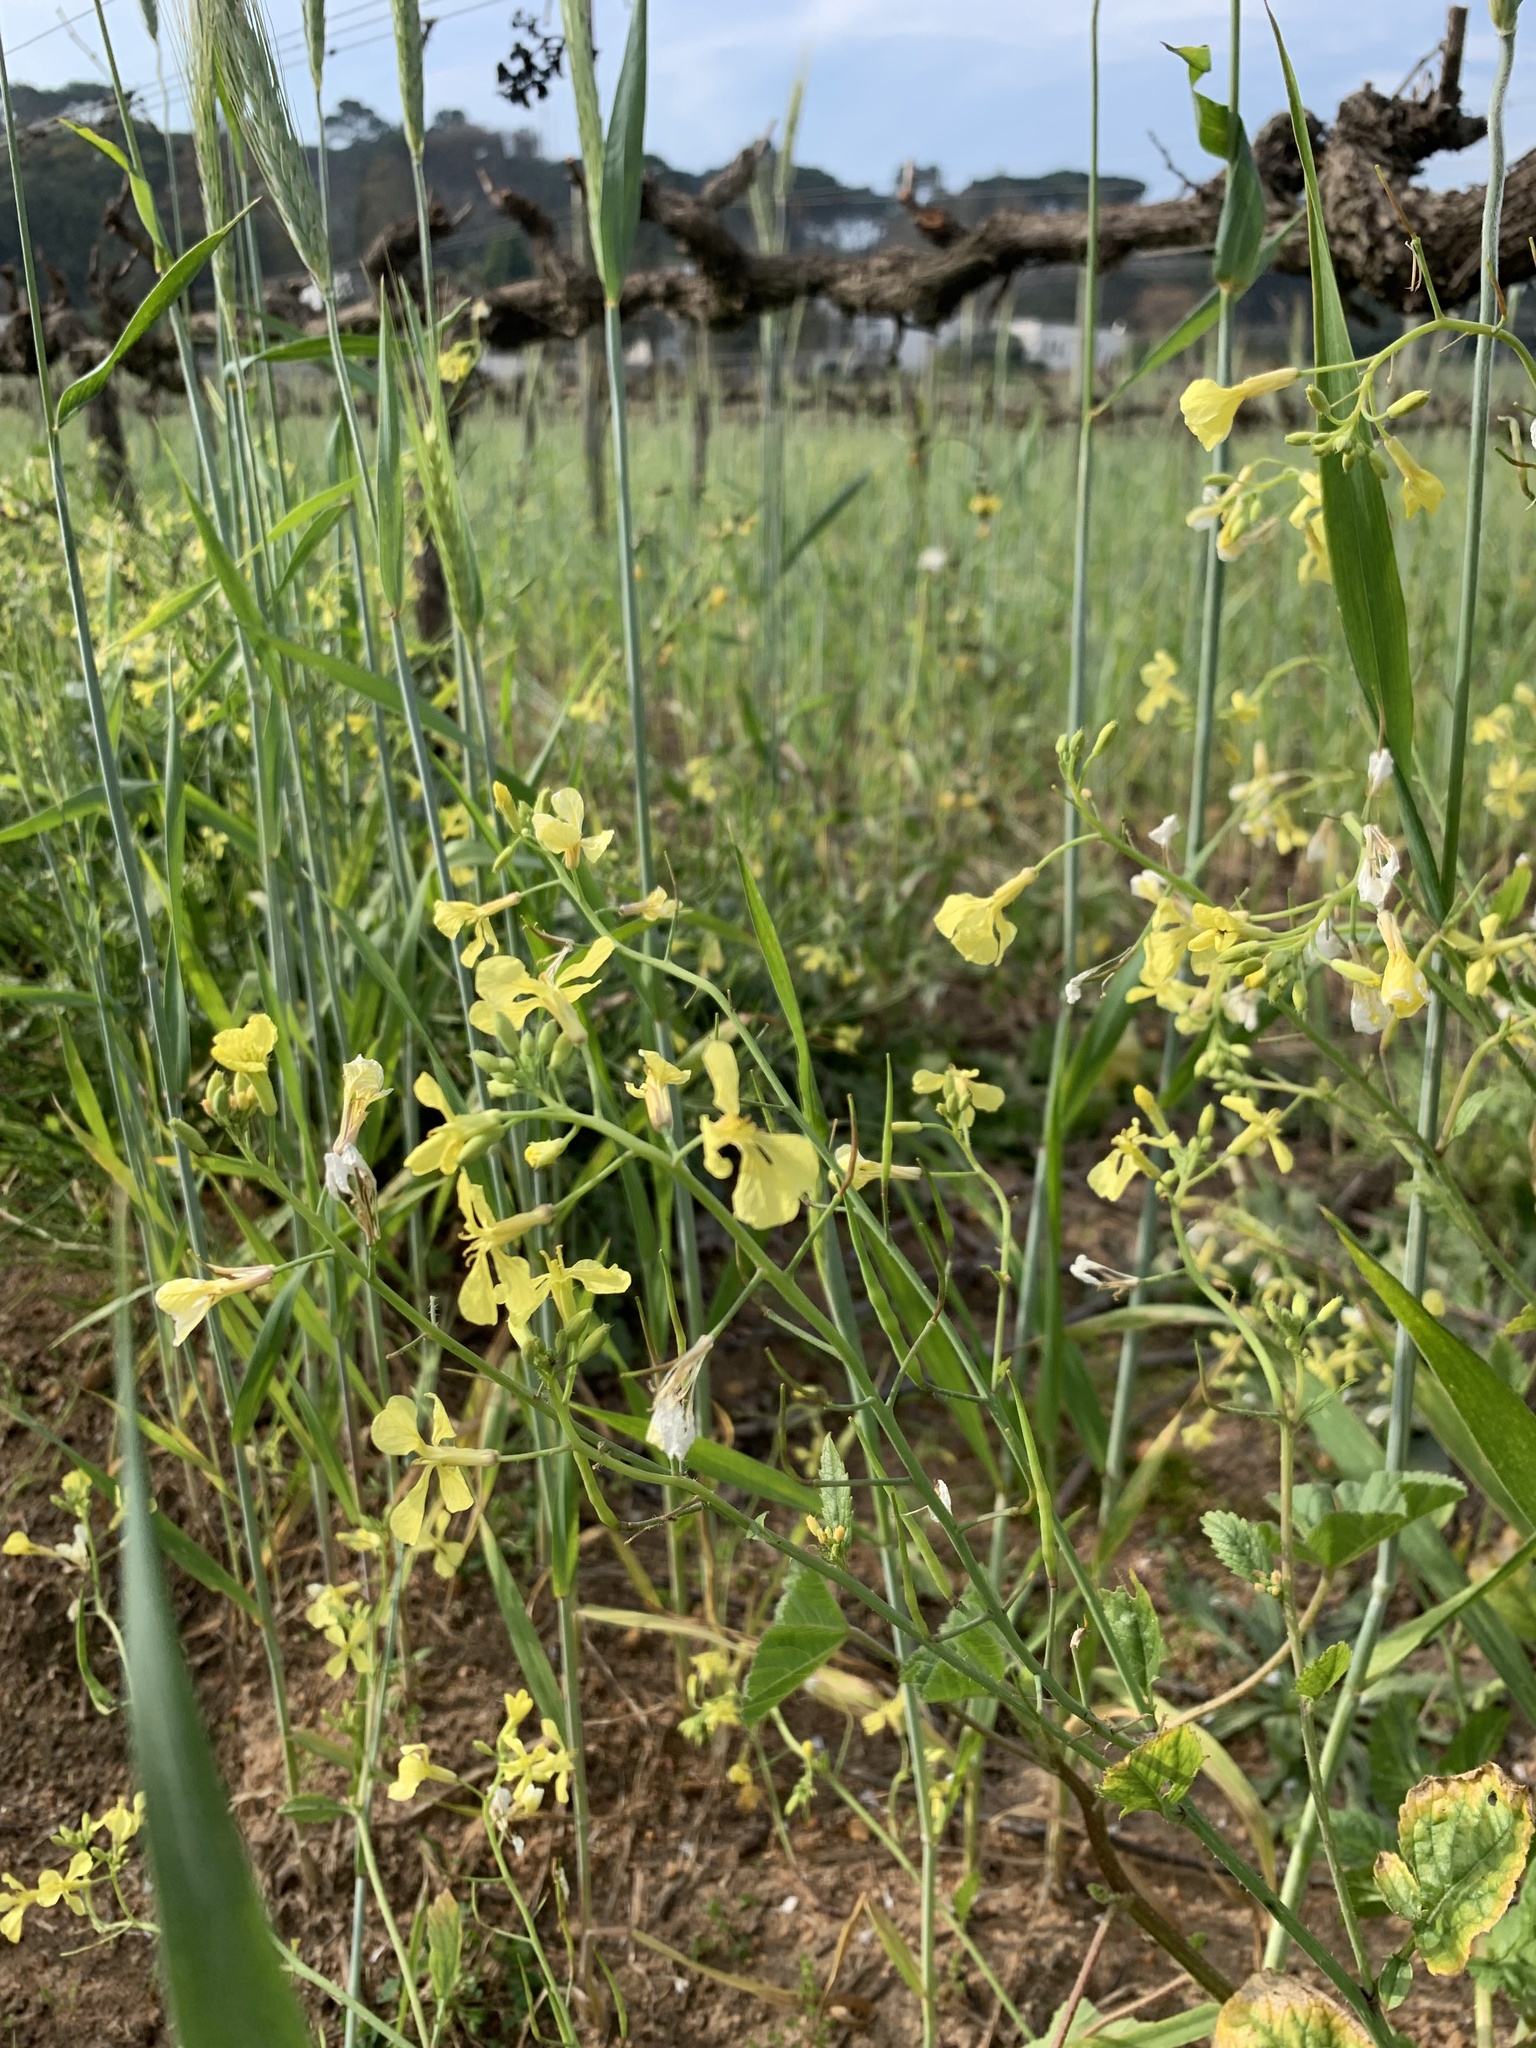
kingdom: Plantae
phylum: Tracheophyta
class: Magnoliopsida
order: Brassicales
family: Brassicaceae
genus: Raphanus
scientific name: Raphanus raphanistrum
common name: Wild radish
